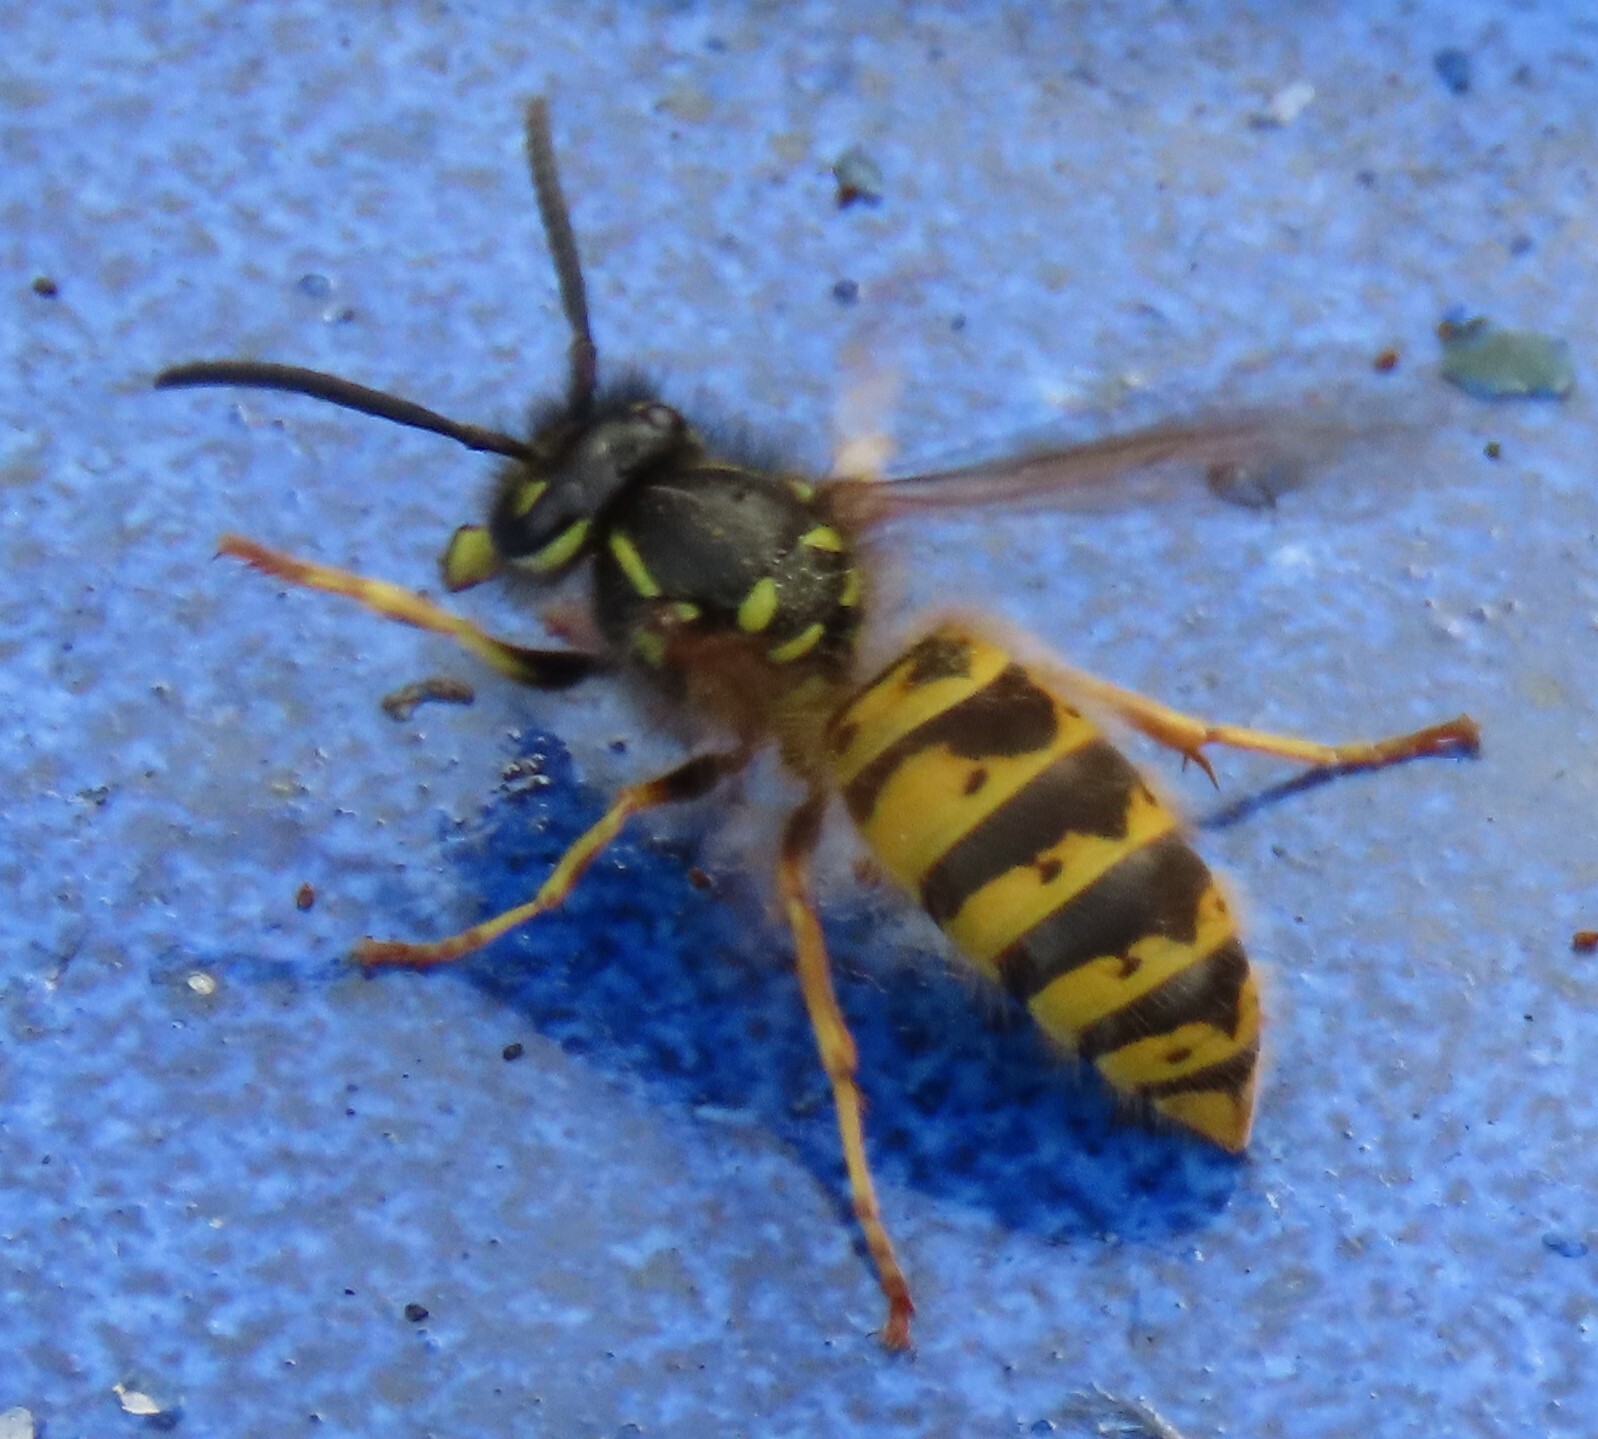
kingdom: Animalia
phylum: Arthropoda
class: Insecta
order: Hymenoptera
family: Vespidae
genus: Vespula
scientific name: Vespula vulgaris
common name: Common wasp
